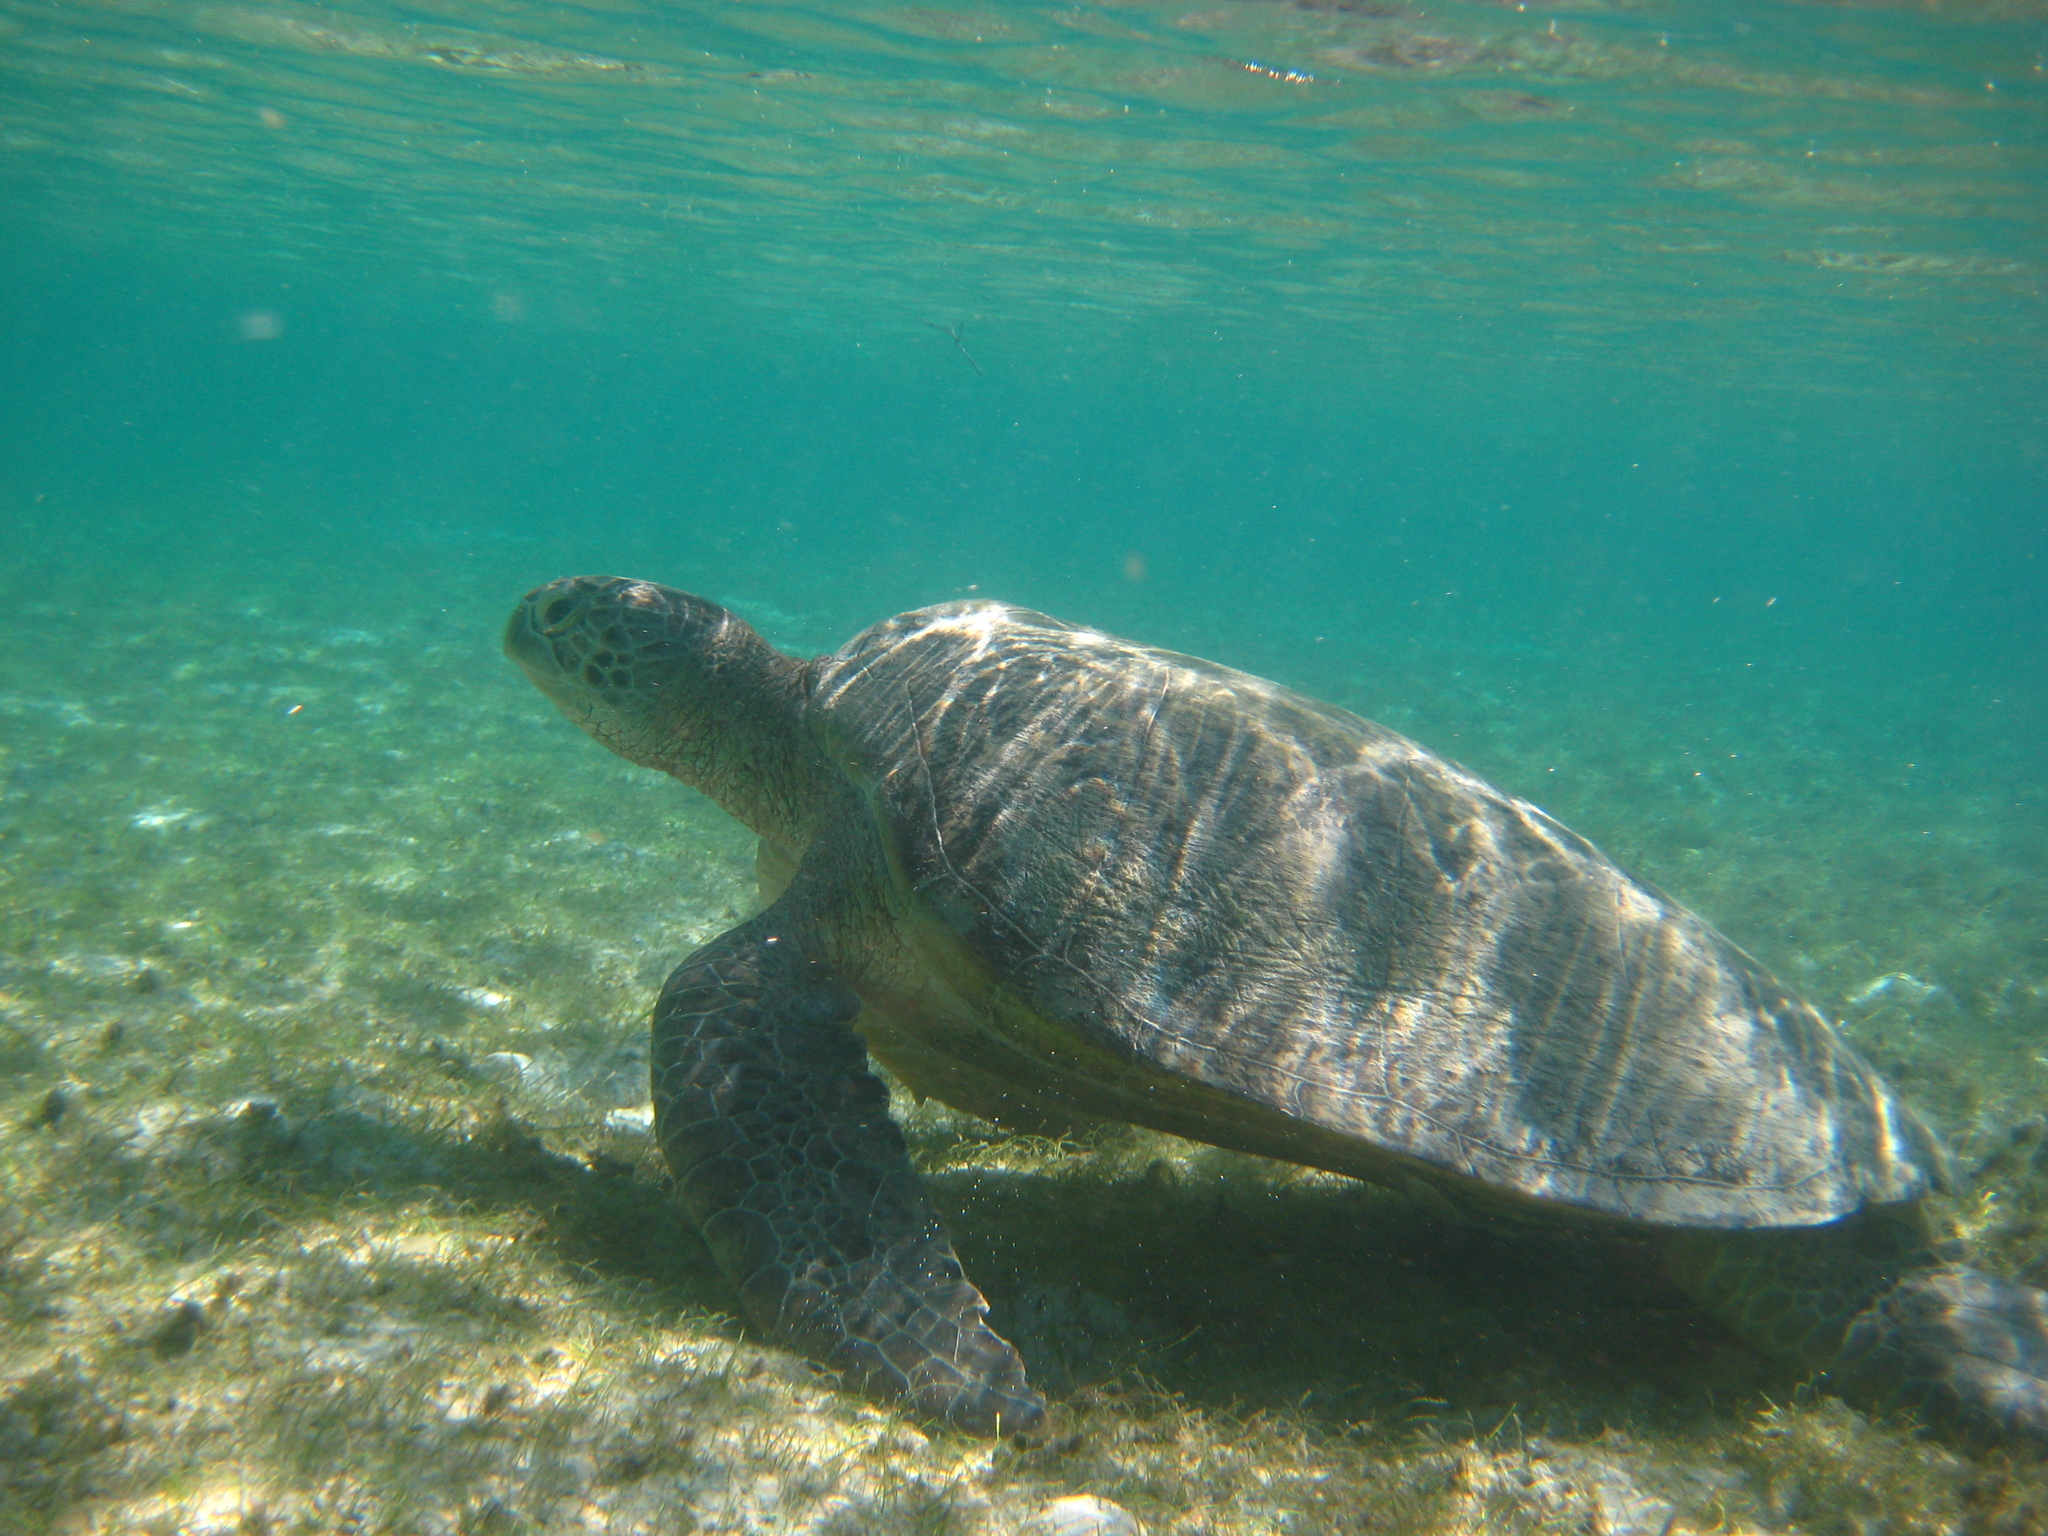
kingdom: Animalia
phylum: Chordata
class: Testudines
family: Cheloniidae
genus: Chelonia
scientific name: Chelonia mydas
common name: Green turtle
